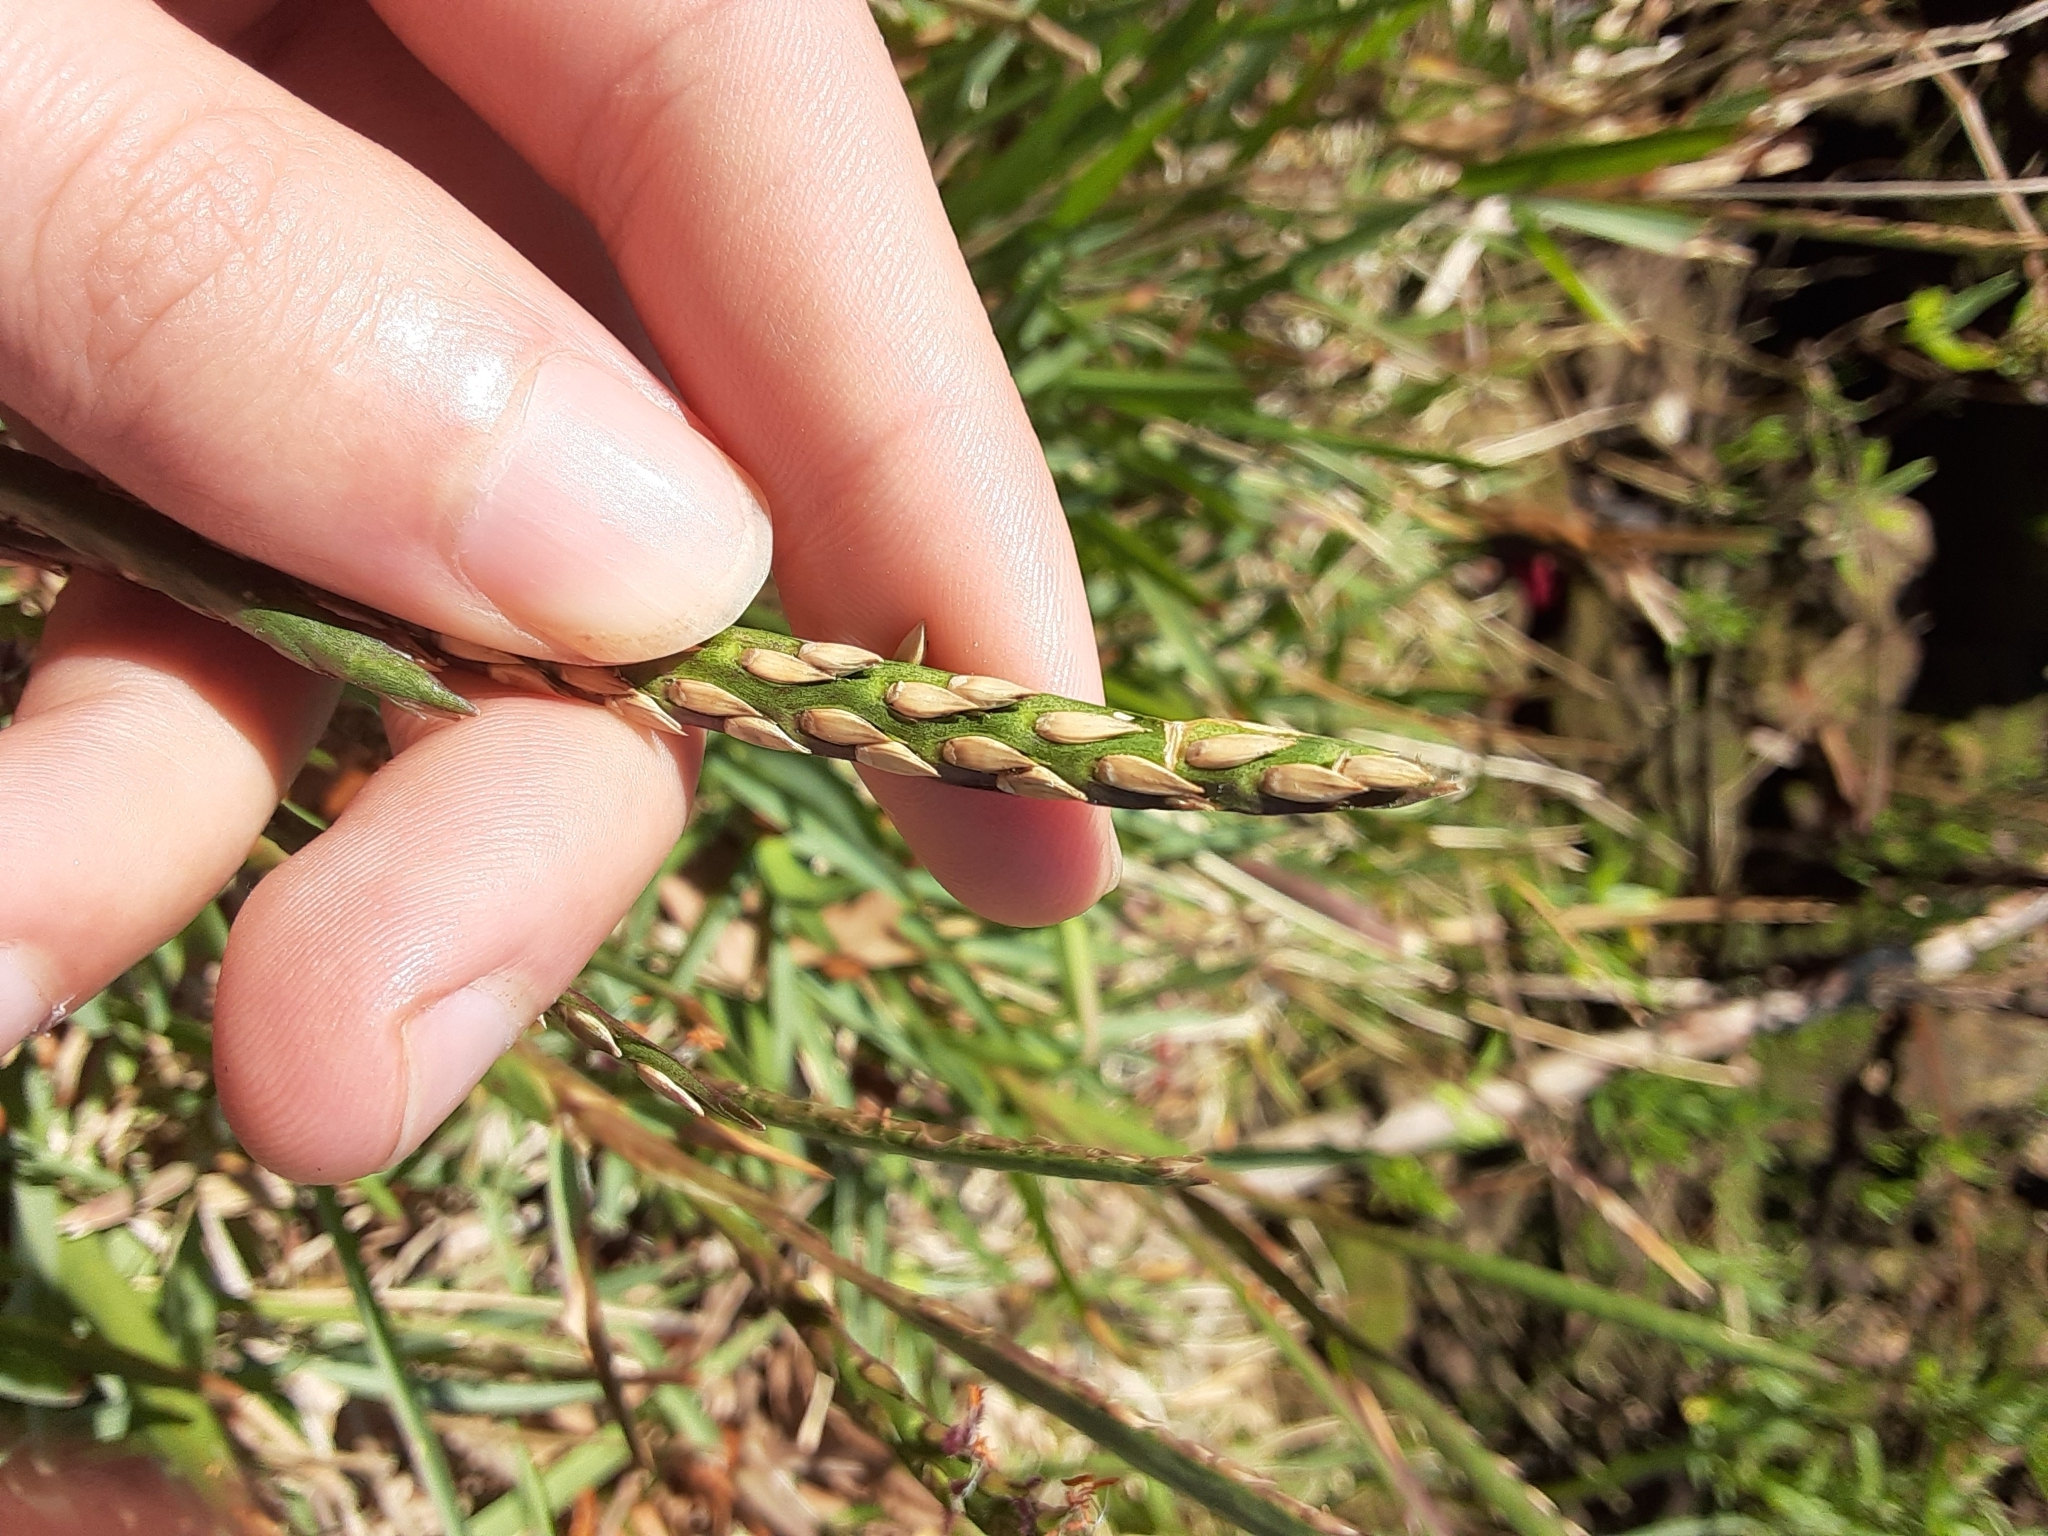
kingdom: Plantae
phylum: Tracheophyta
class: Liliopsida
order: Poales
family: Poaceae
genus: Stenotaphrum
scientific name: Stenotaphrum secundatum
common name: St. augustine grass
